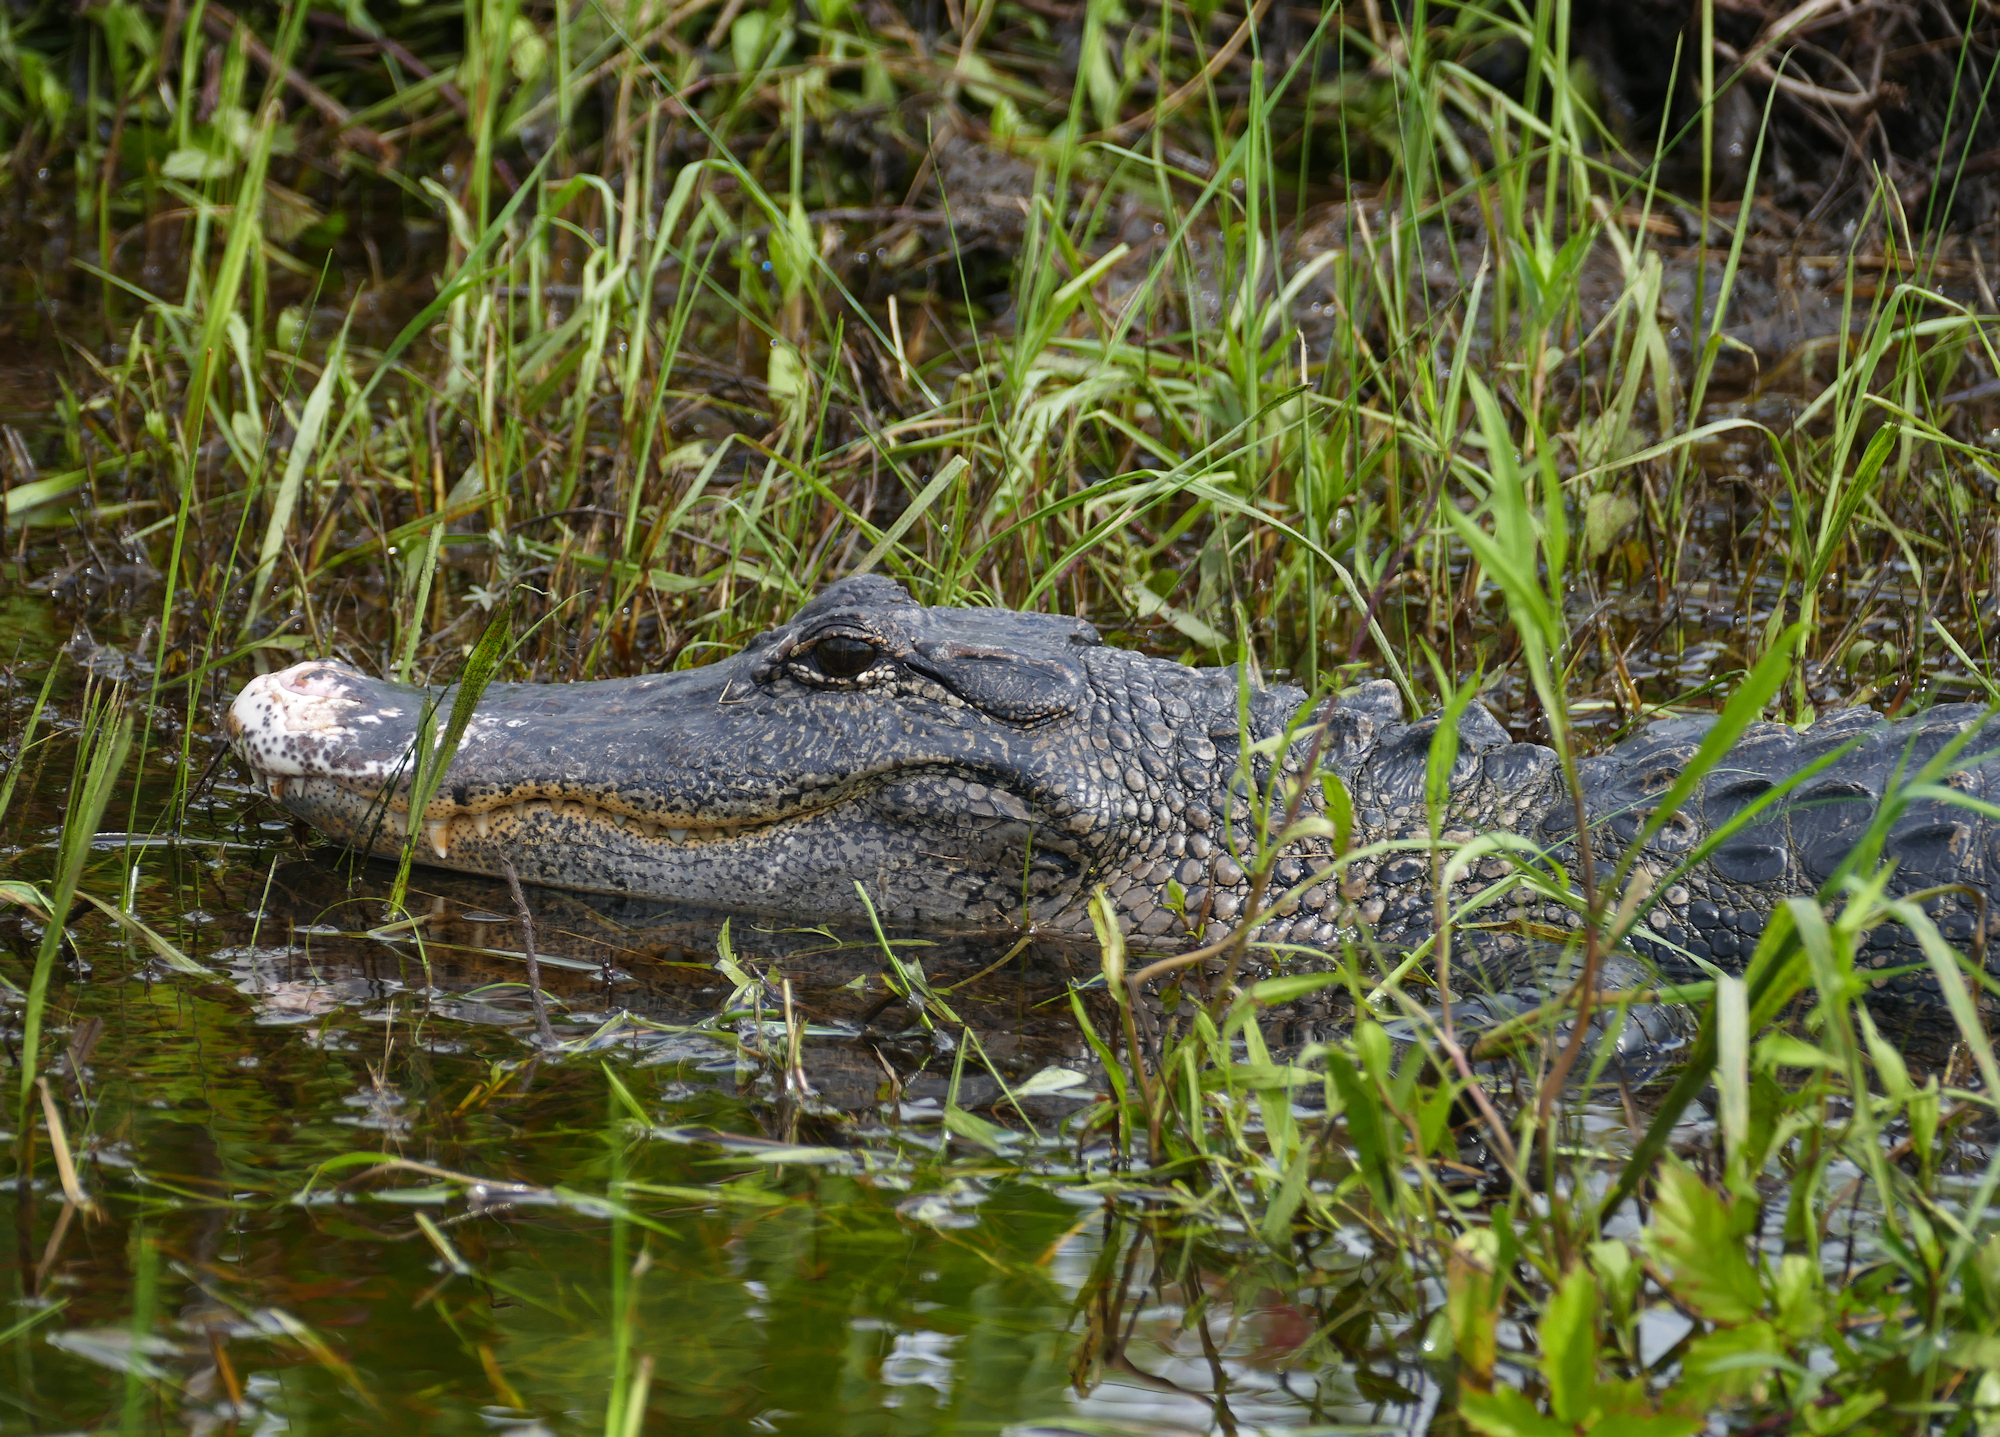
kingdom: Animalia
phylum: Chordata
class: Crocodylia
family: Alligatoridae
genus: Alligator
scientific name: Alligator mississippiensis
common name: American alligator
